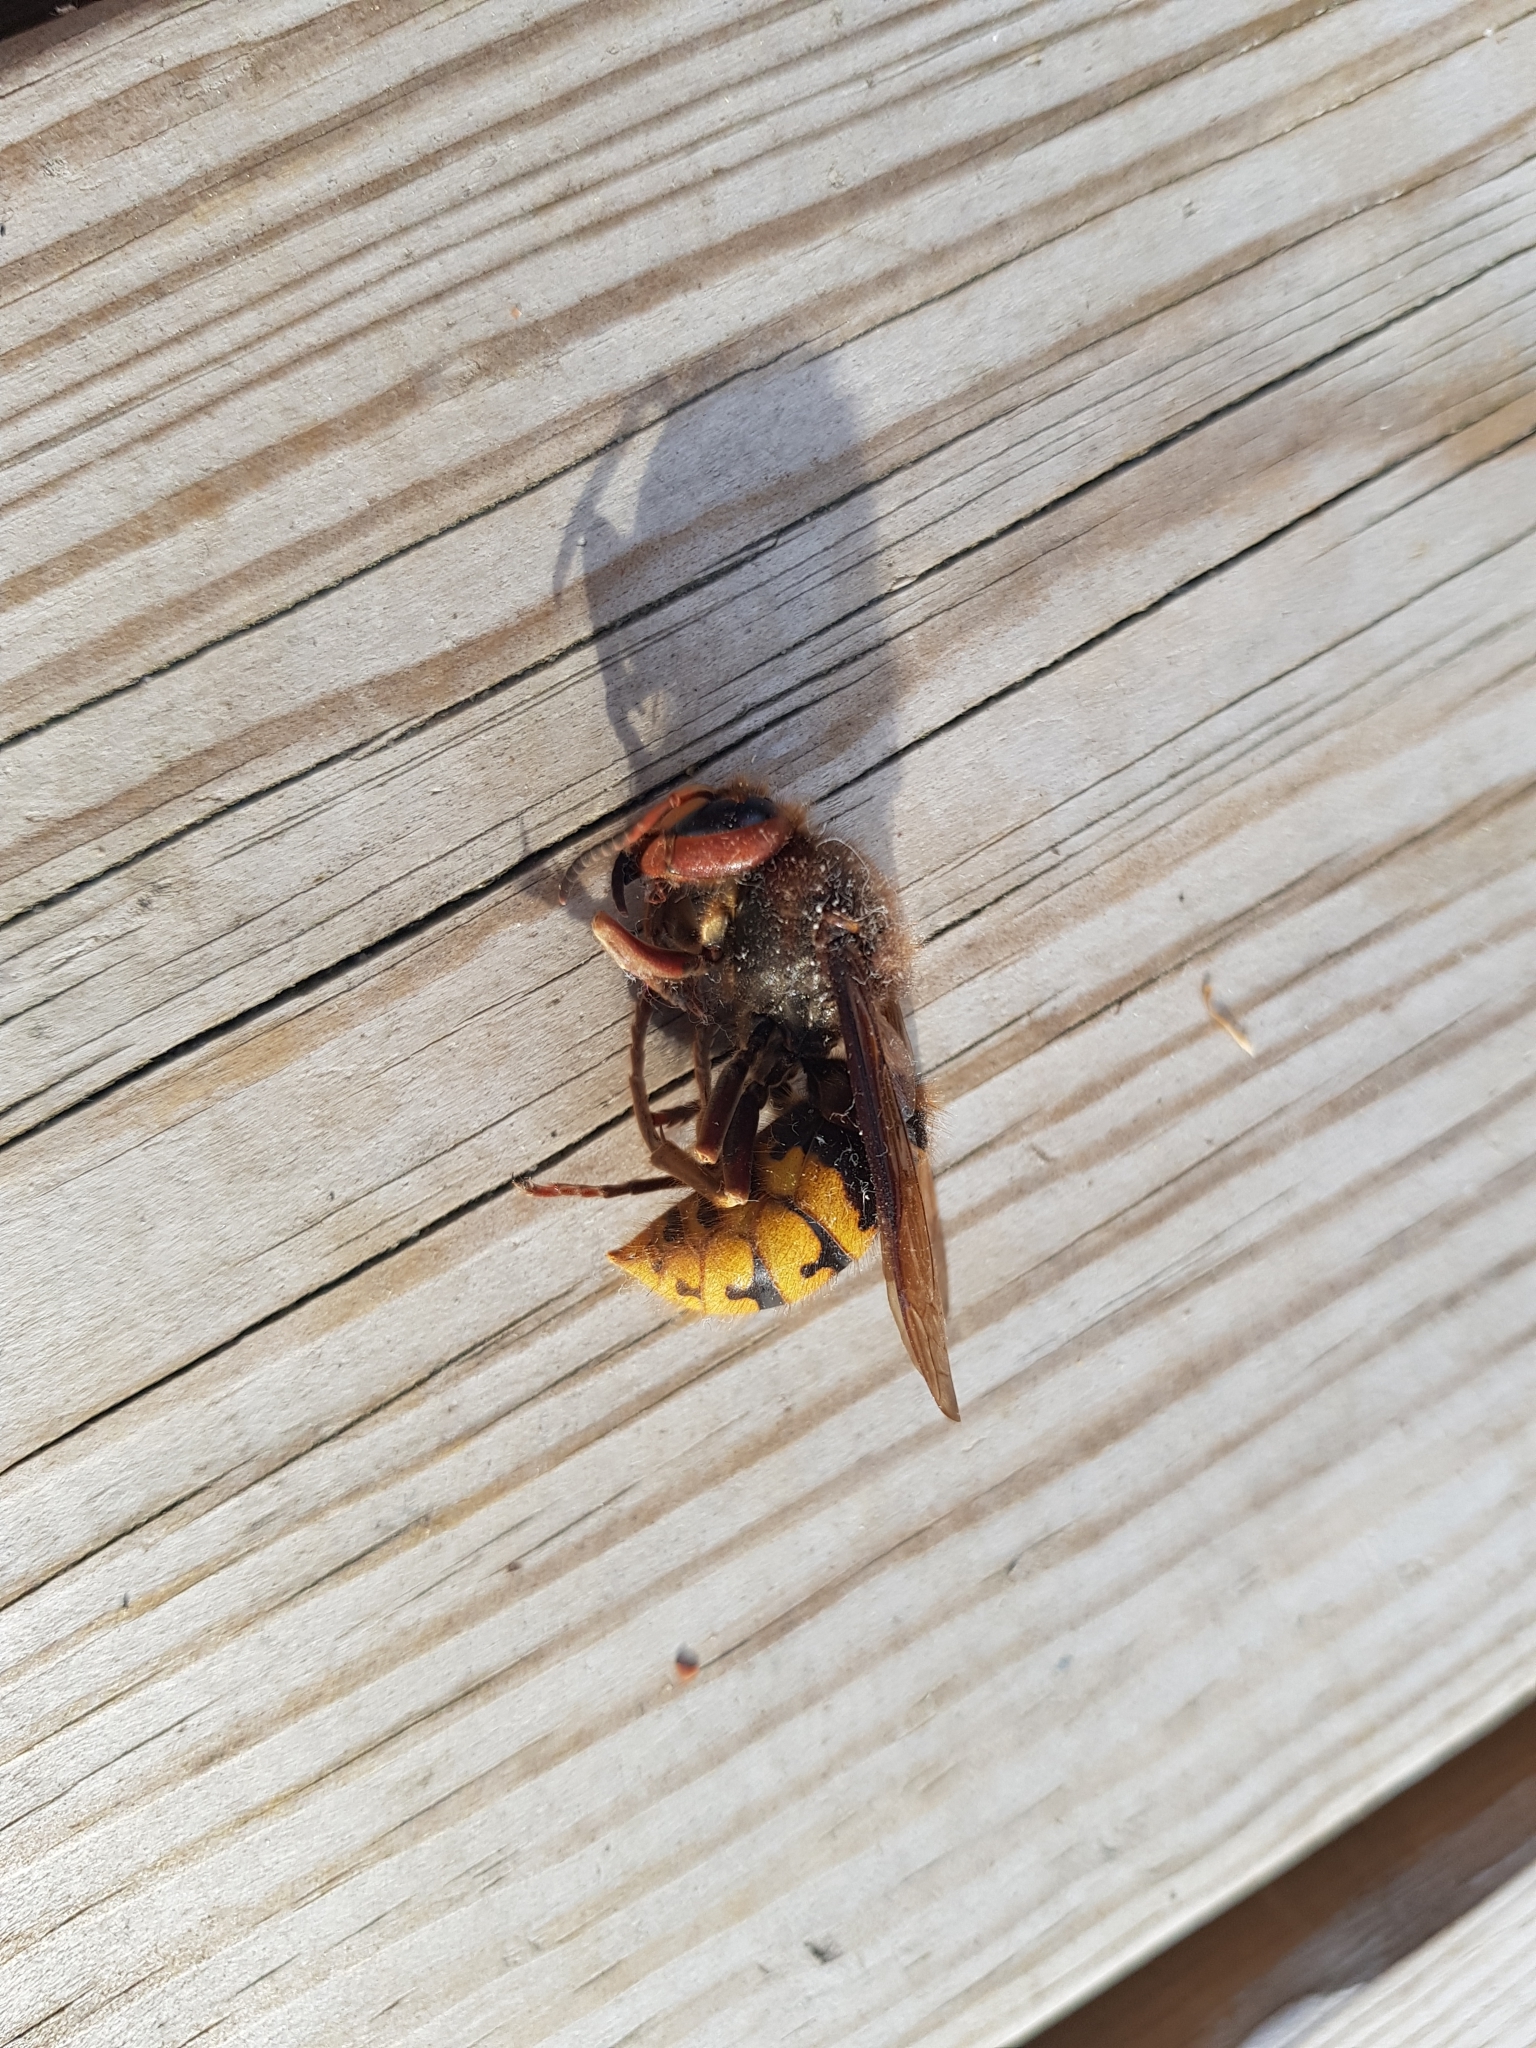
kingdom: Animalia
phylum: Arthropoda
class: Insecta
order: Hymenoptera
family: Vespidae
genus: Vespa
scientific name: Vespa crabro
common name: Hornet
